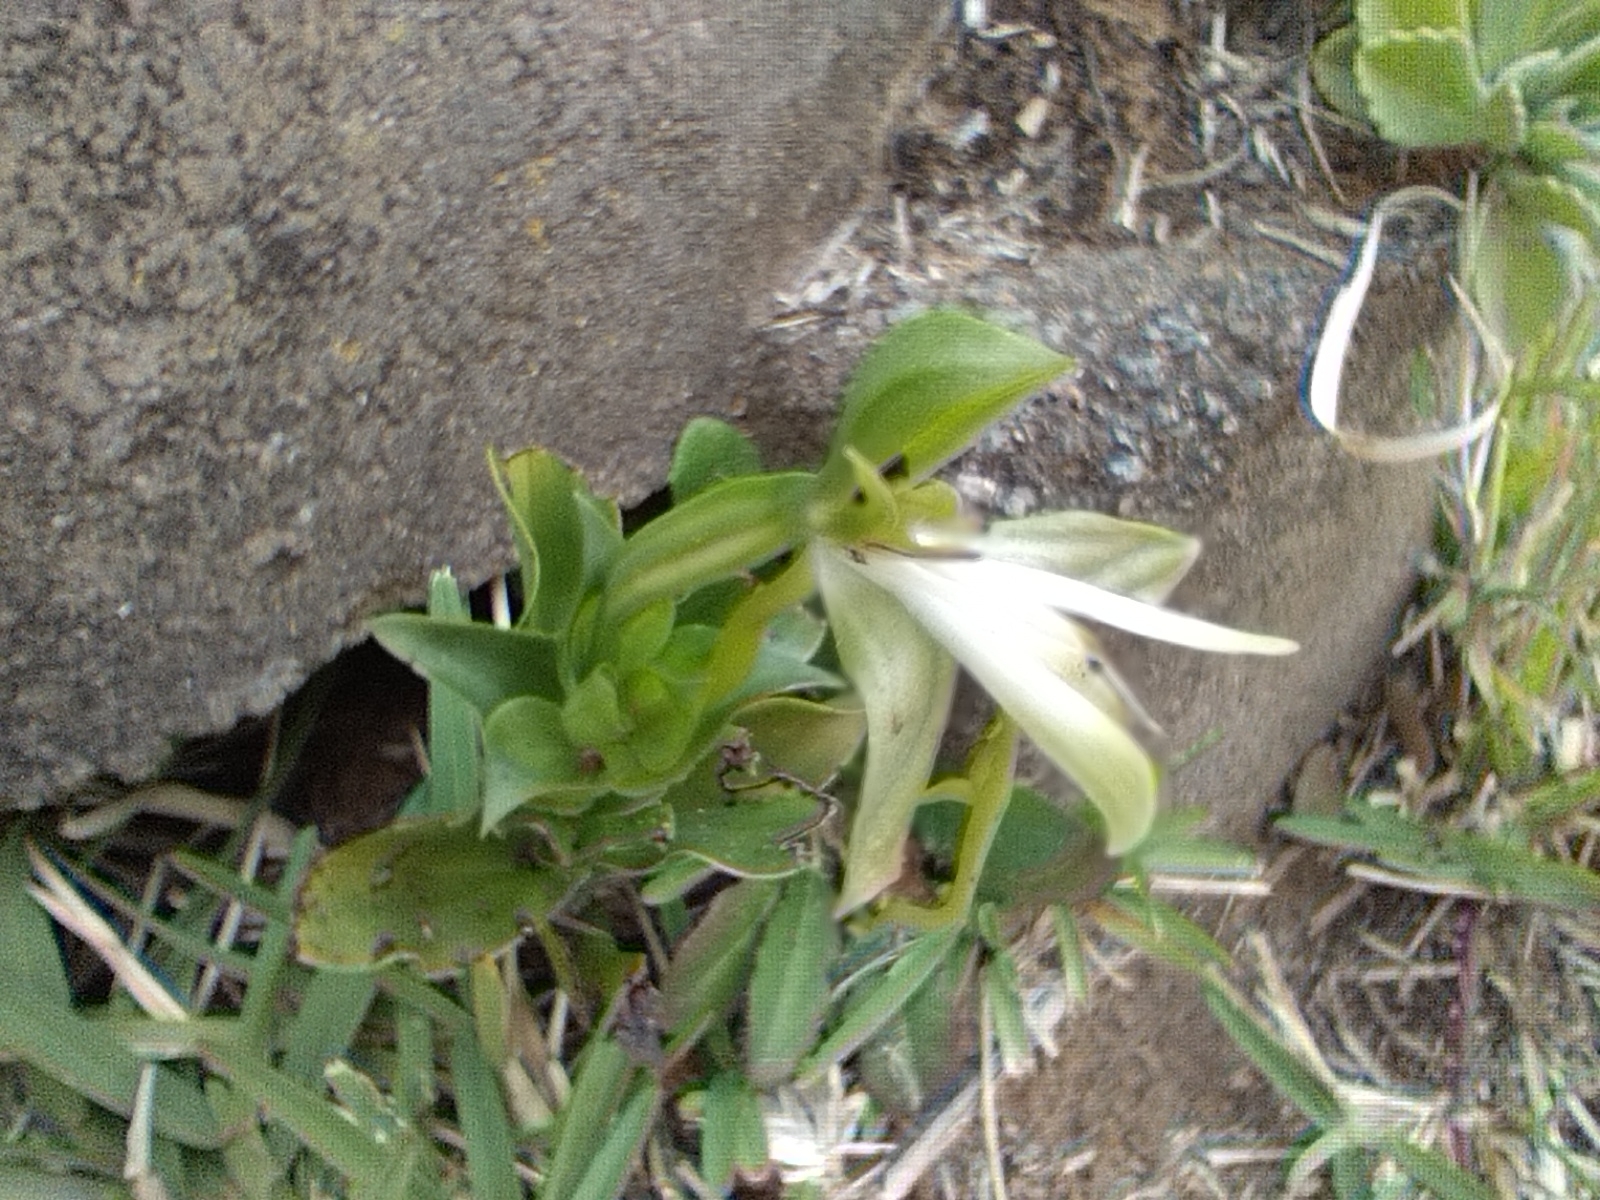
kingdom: Plantae
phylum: Tracheophyta
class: Liliopsida
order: Asparagales
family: Orchidaceae
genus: Bonatea
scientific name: Bonatea speciosa
